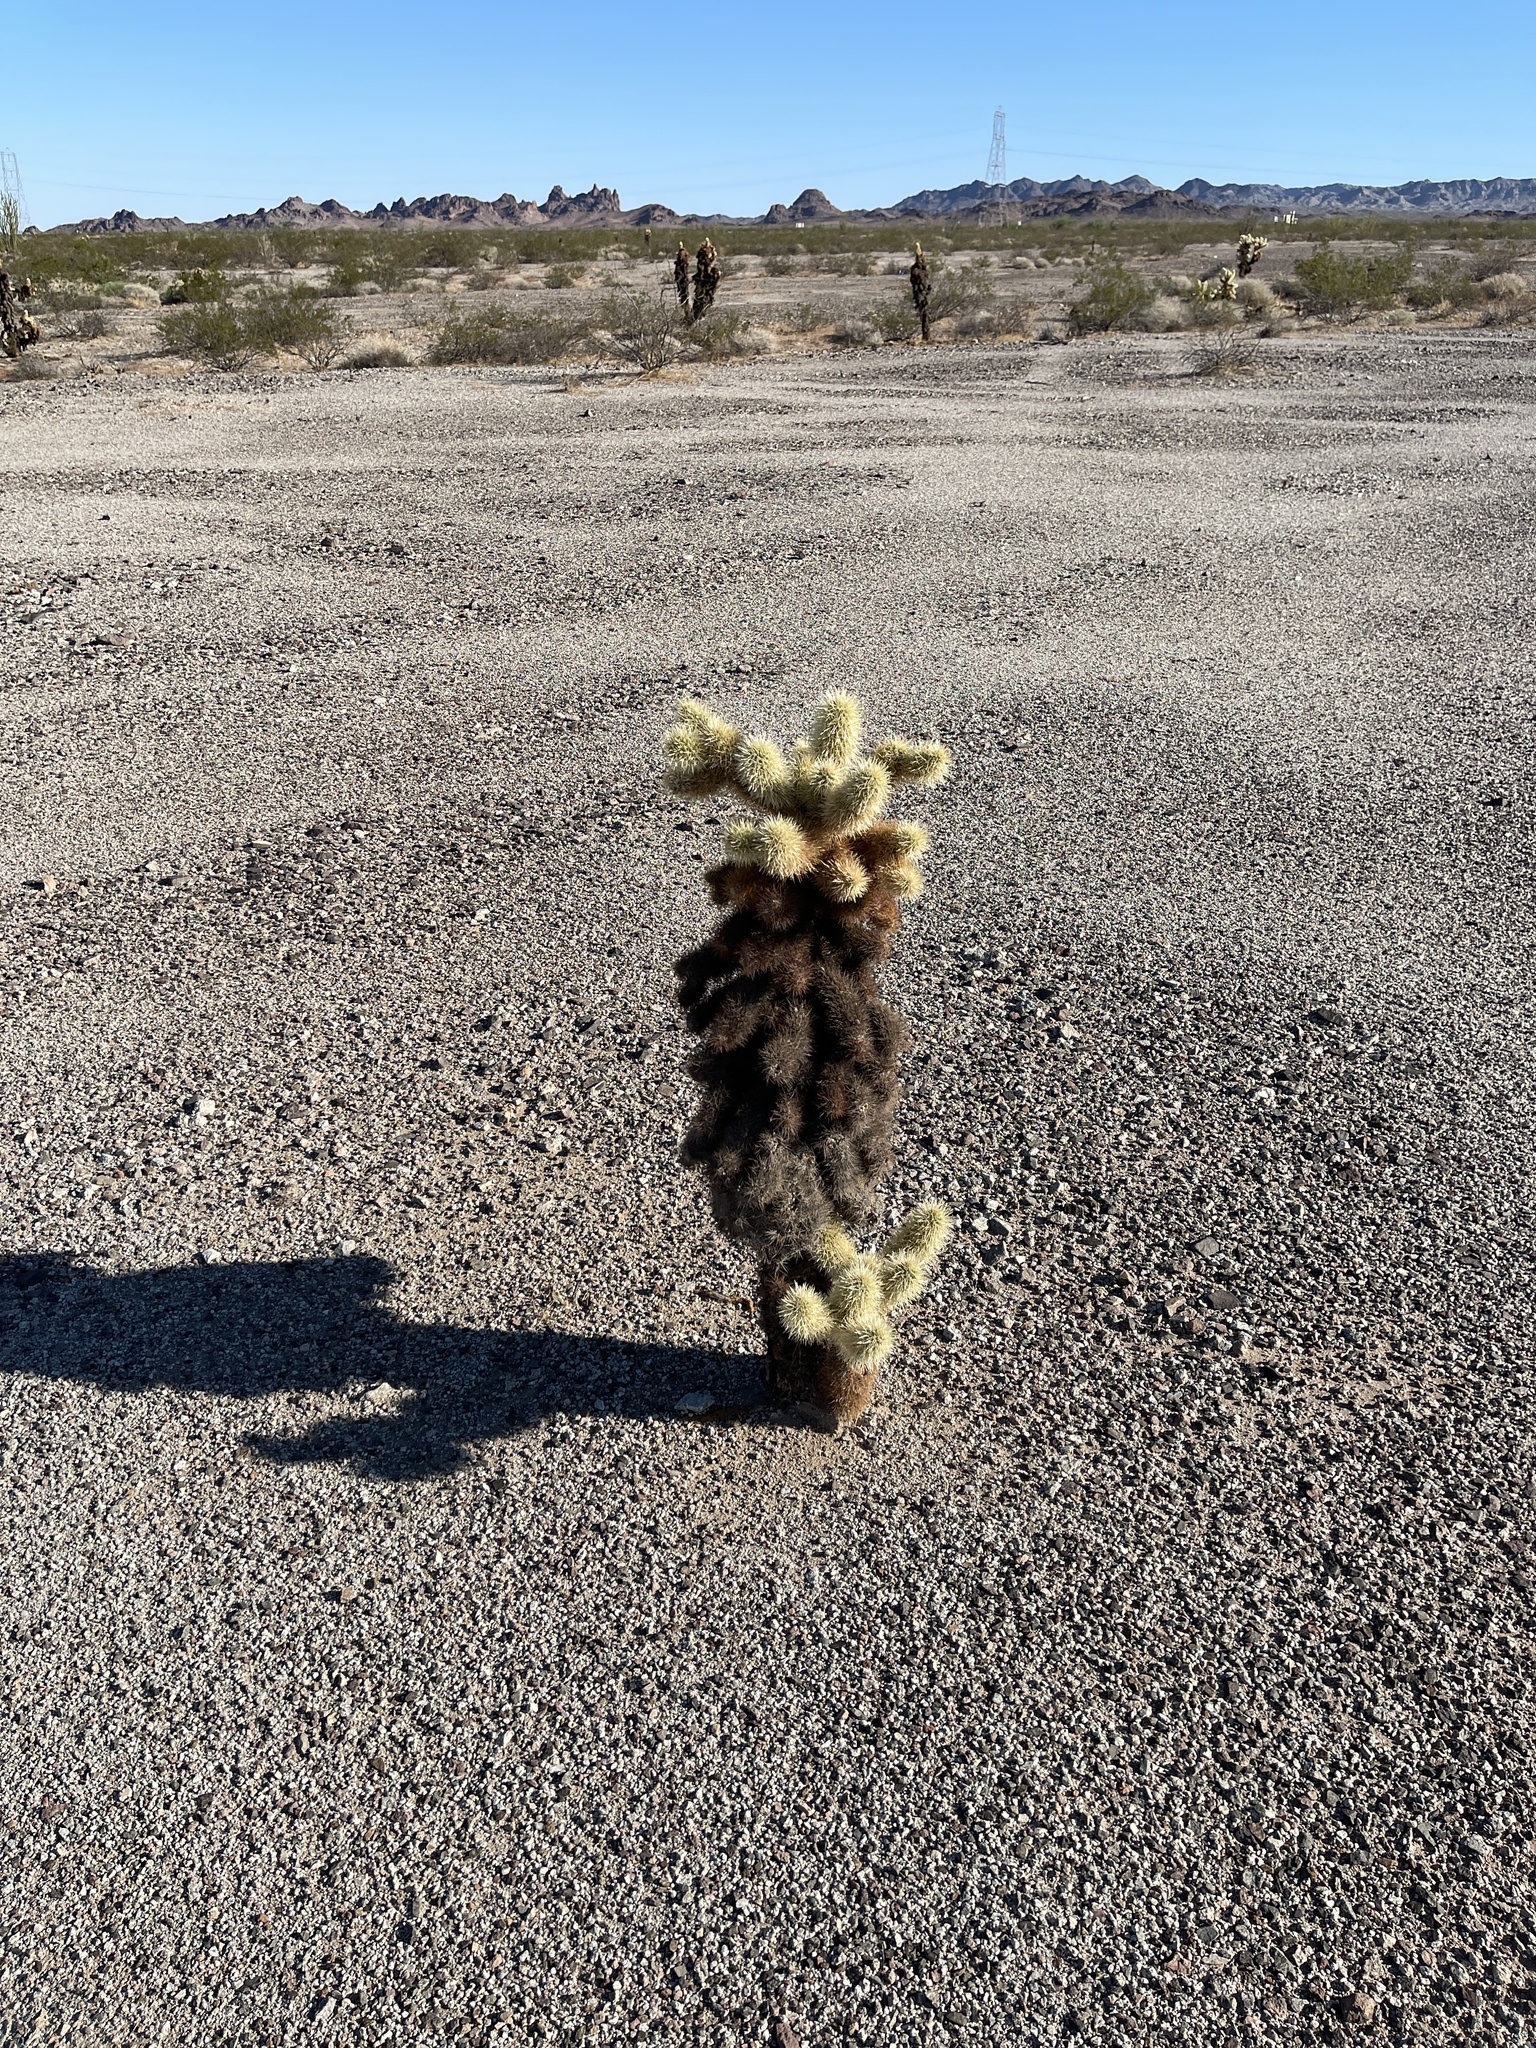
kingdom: Plantae
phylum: Tracheophyta
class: Magnoliopsida
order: Caryophyllales
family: Cactaceae
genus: Cylindropuntia
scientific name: Cylindropuntia fosbergii
